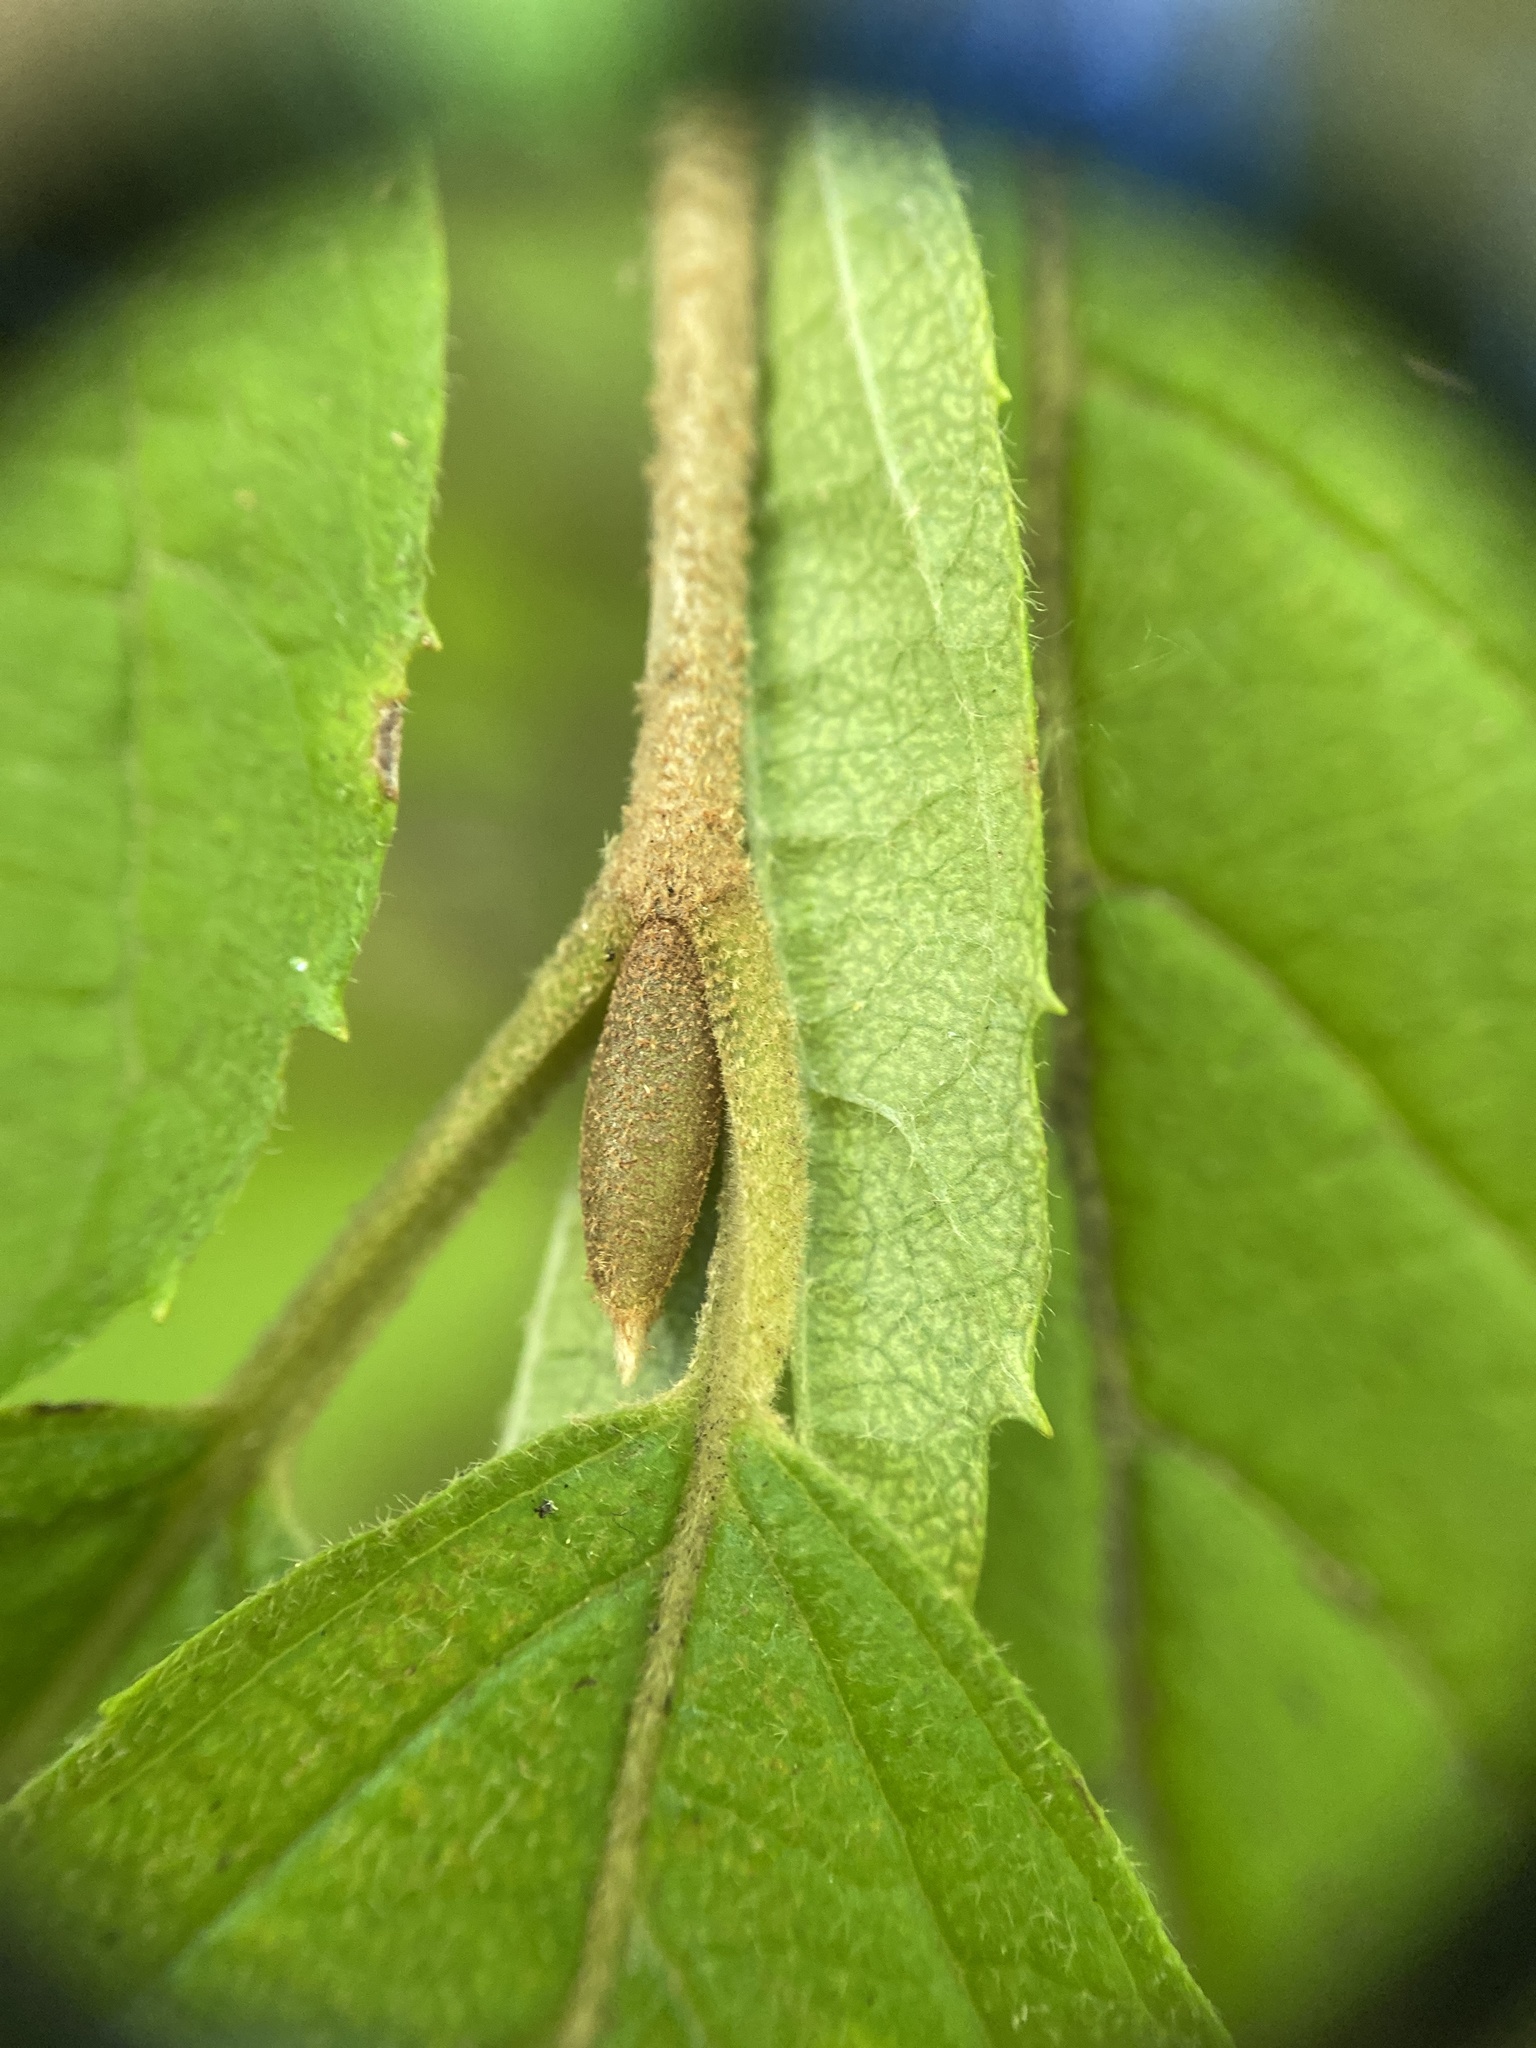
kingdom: Plantae
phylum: Tracheophyta
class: Magnoliopsida
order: Dipsacales
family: Viburnaceae
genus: Viburnum
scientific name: Viburnum plicatum
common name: Japanese snowball
